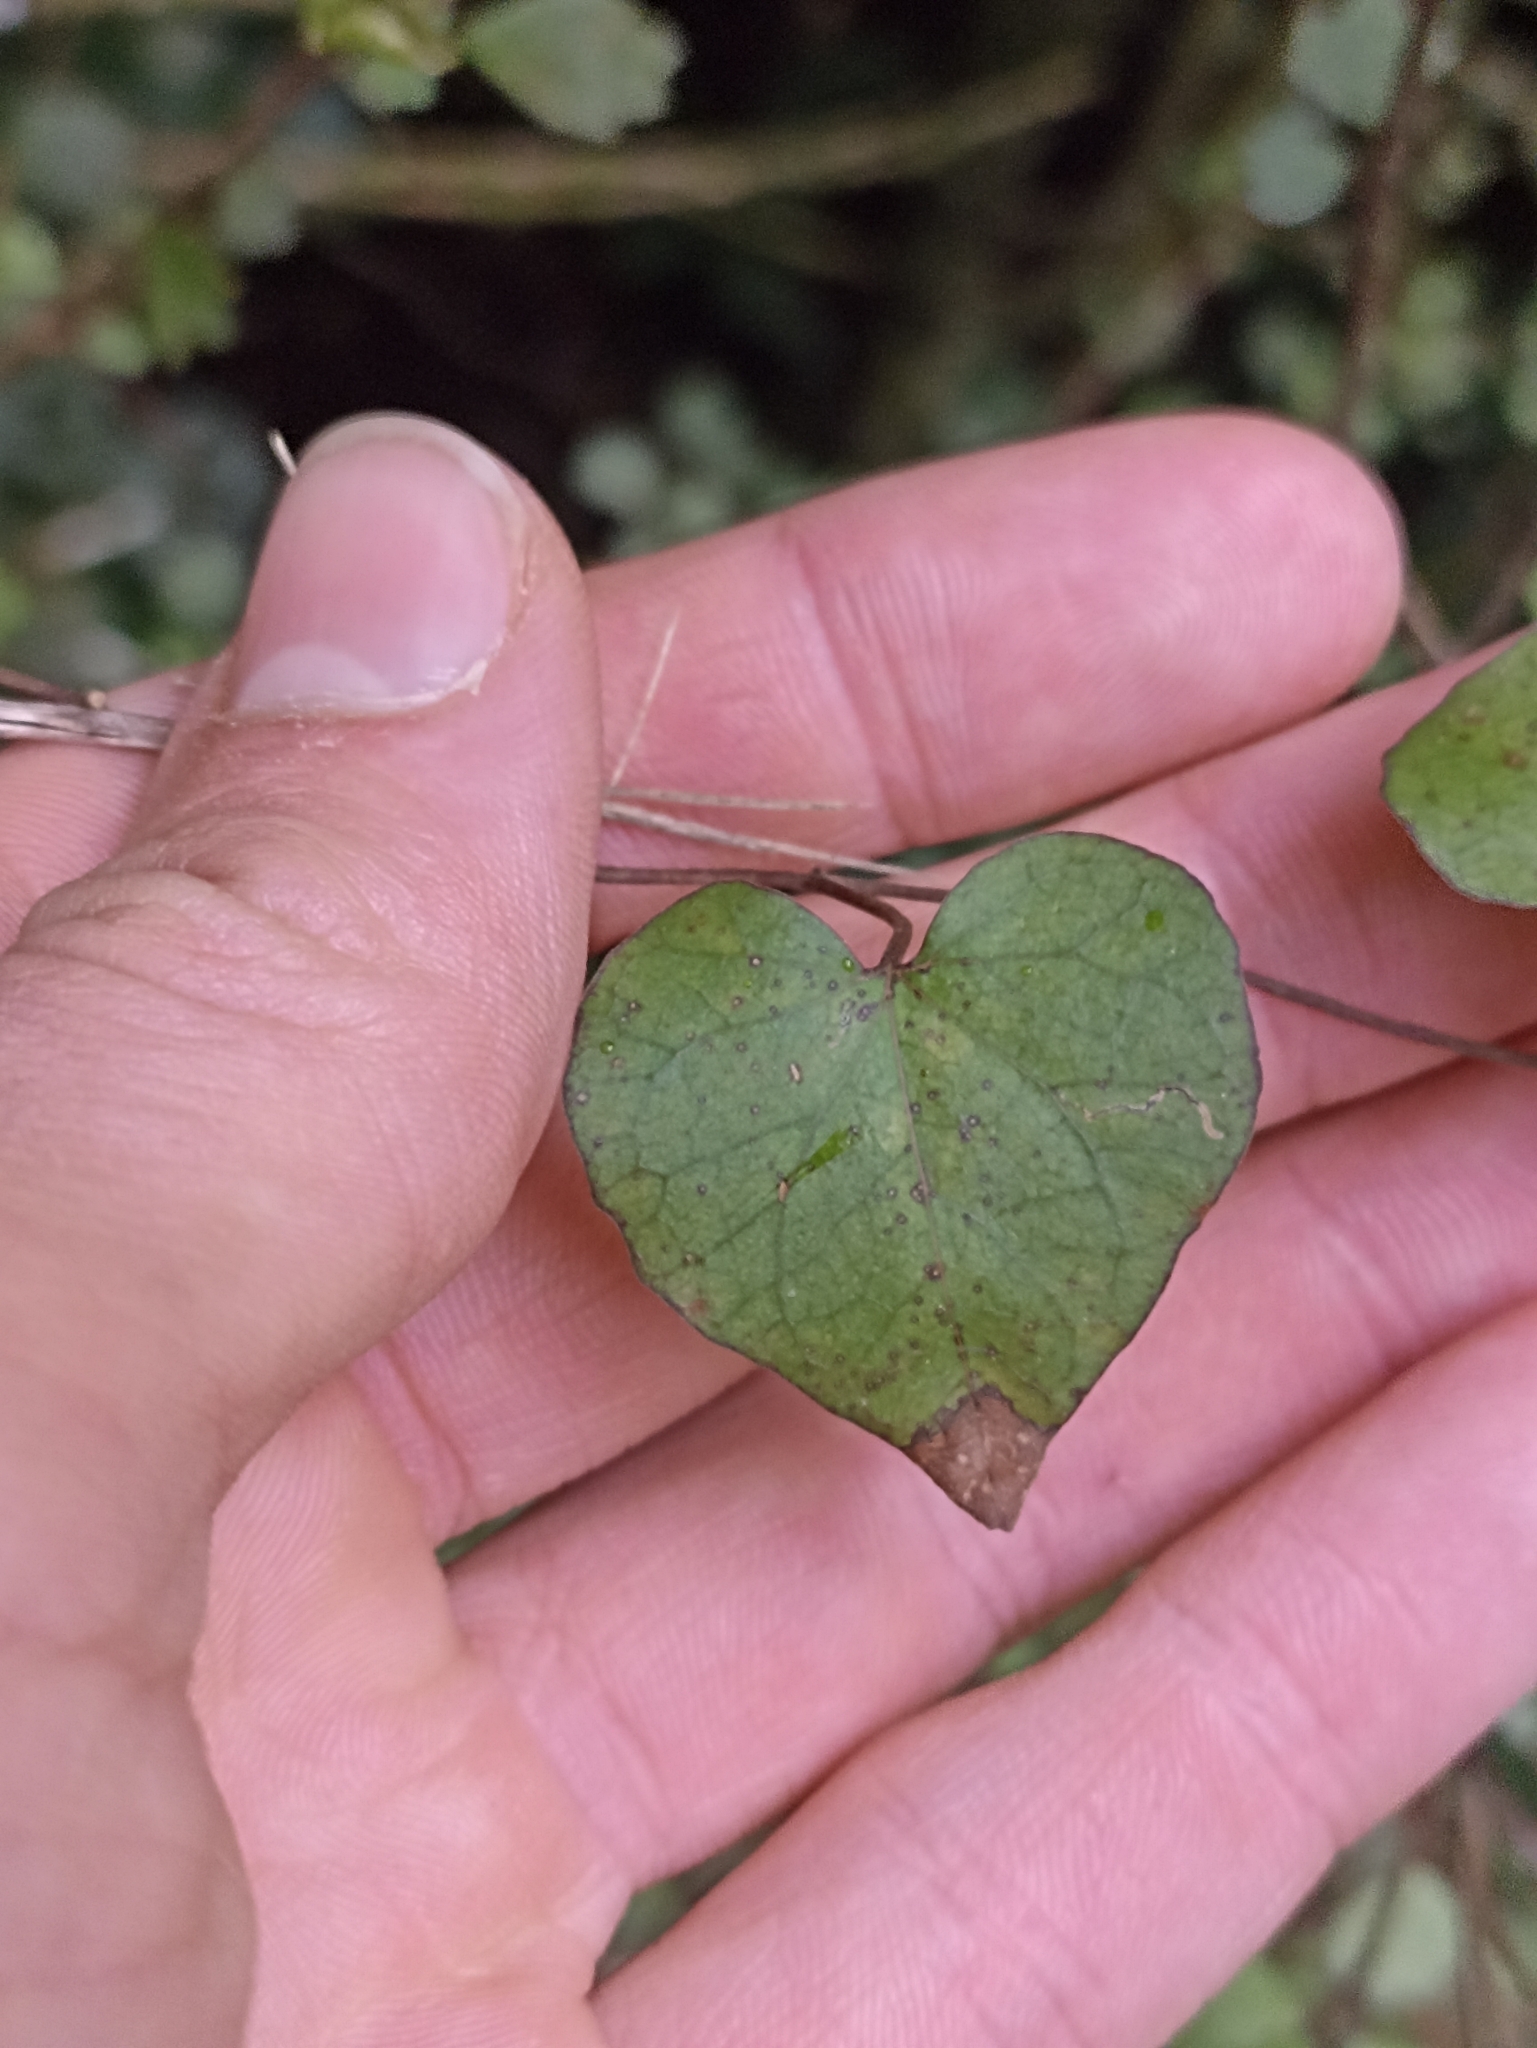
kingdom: Plantae
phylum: Tracheophyta
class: Magnoliopsida
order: Solanales
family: Convolvulaceae
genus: Calystegia
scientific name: Calystegia tuguriorum
